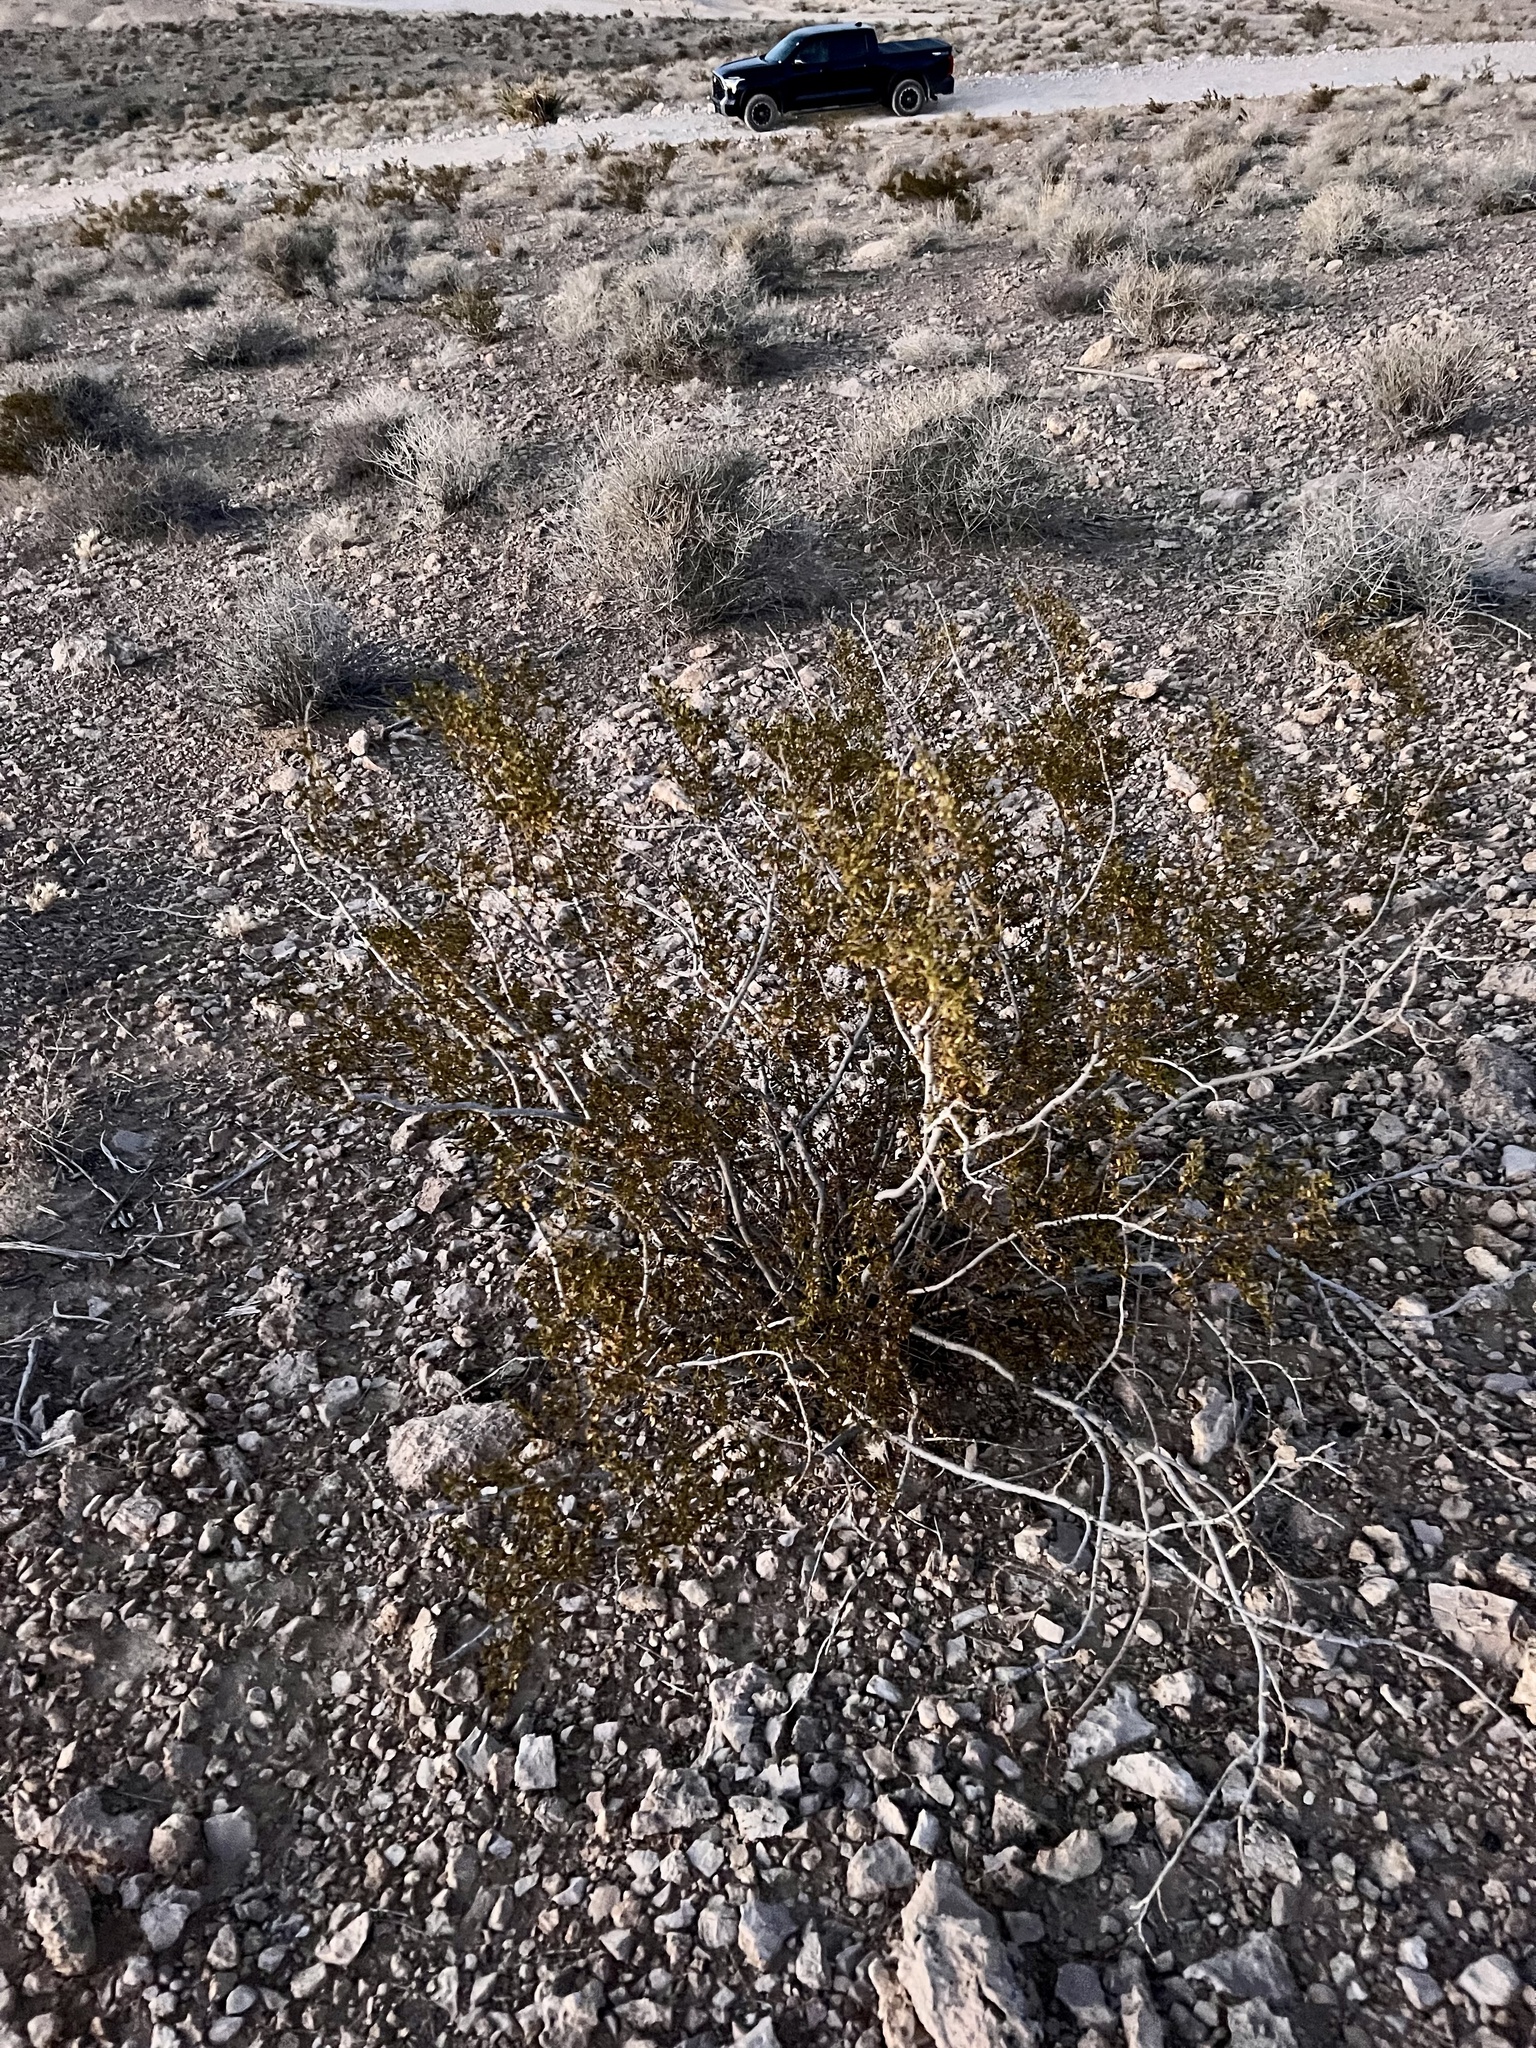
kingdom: Plantae
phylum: Tracheophyta
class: Magnoliopsida
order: Zygophyllales
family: Zygophyllaceae
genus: Larrea
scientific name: Larrea tridentata
